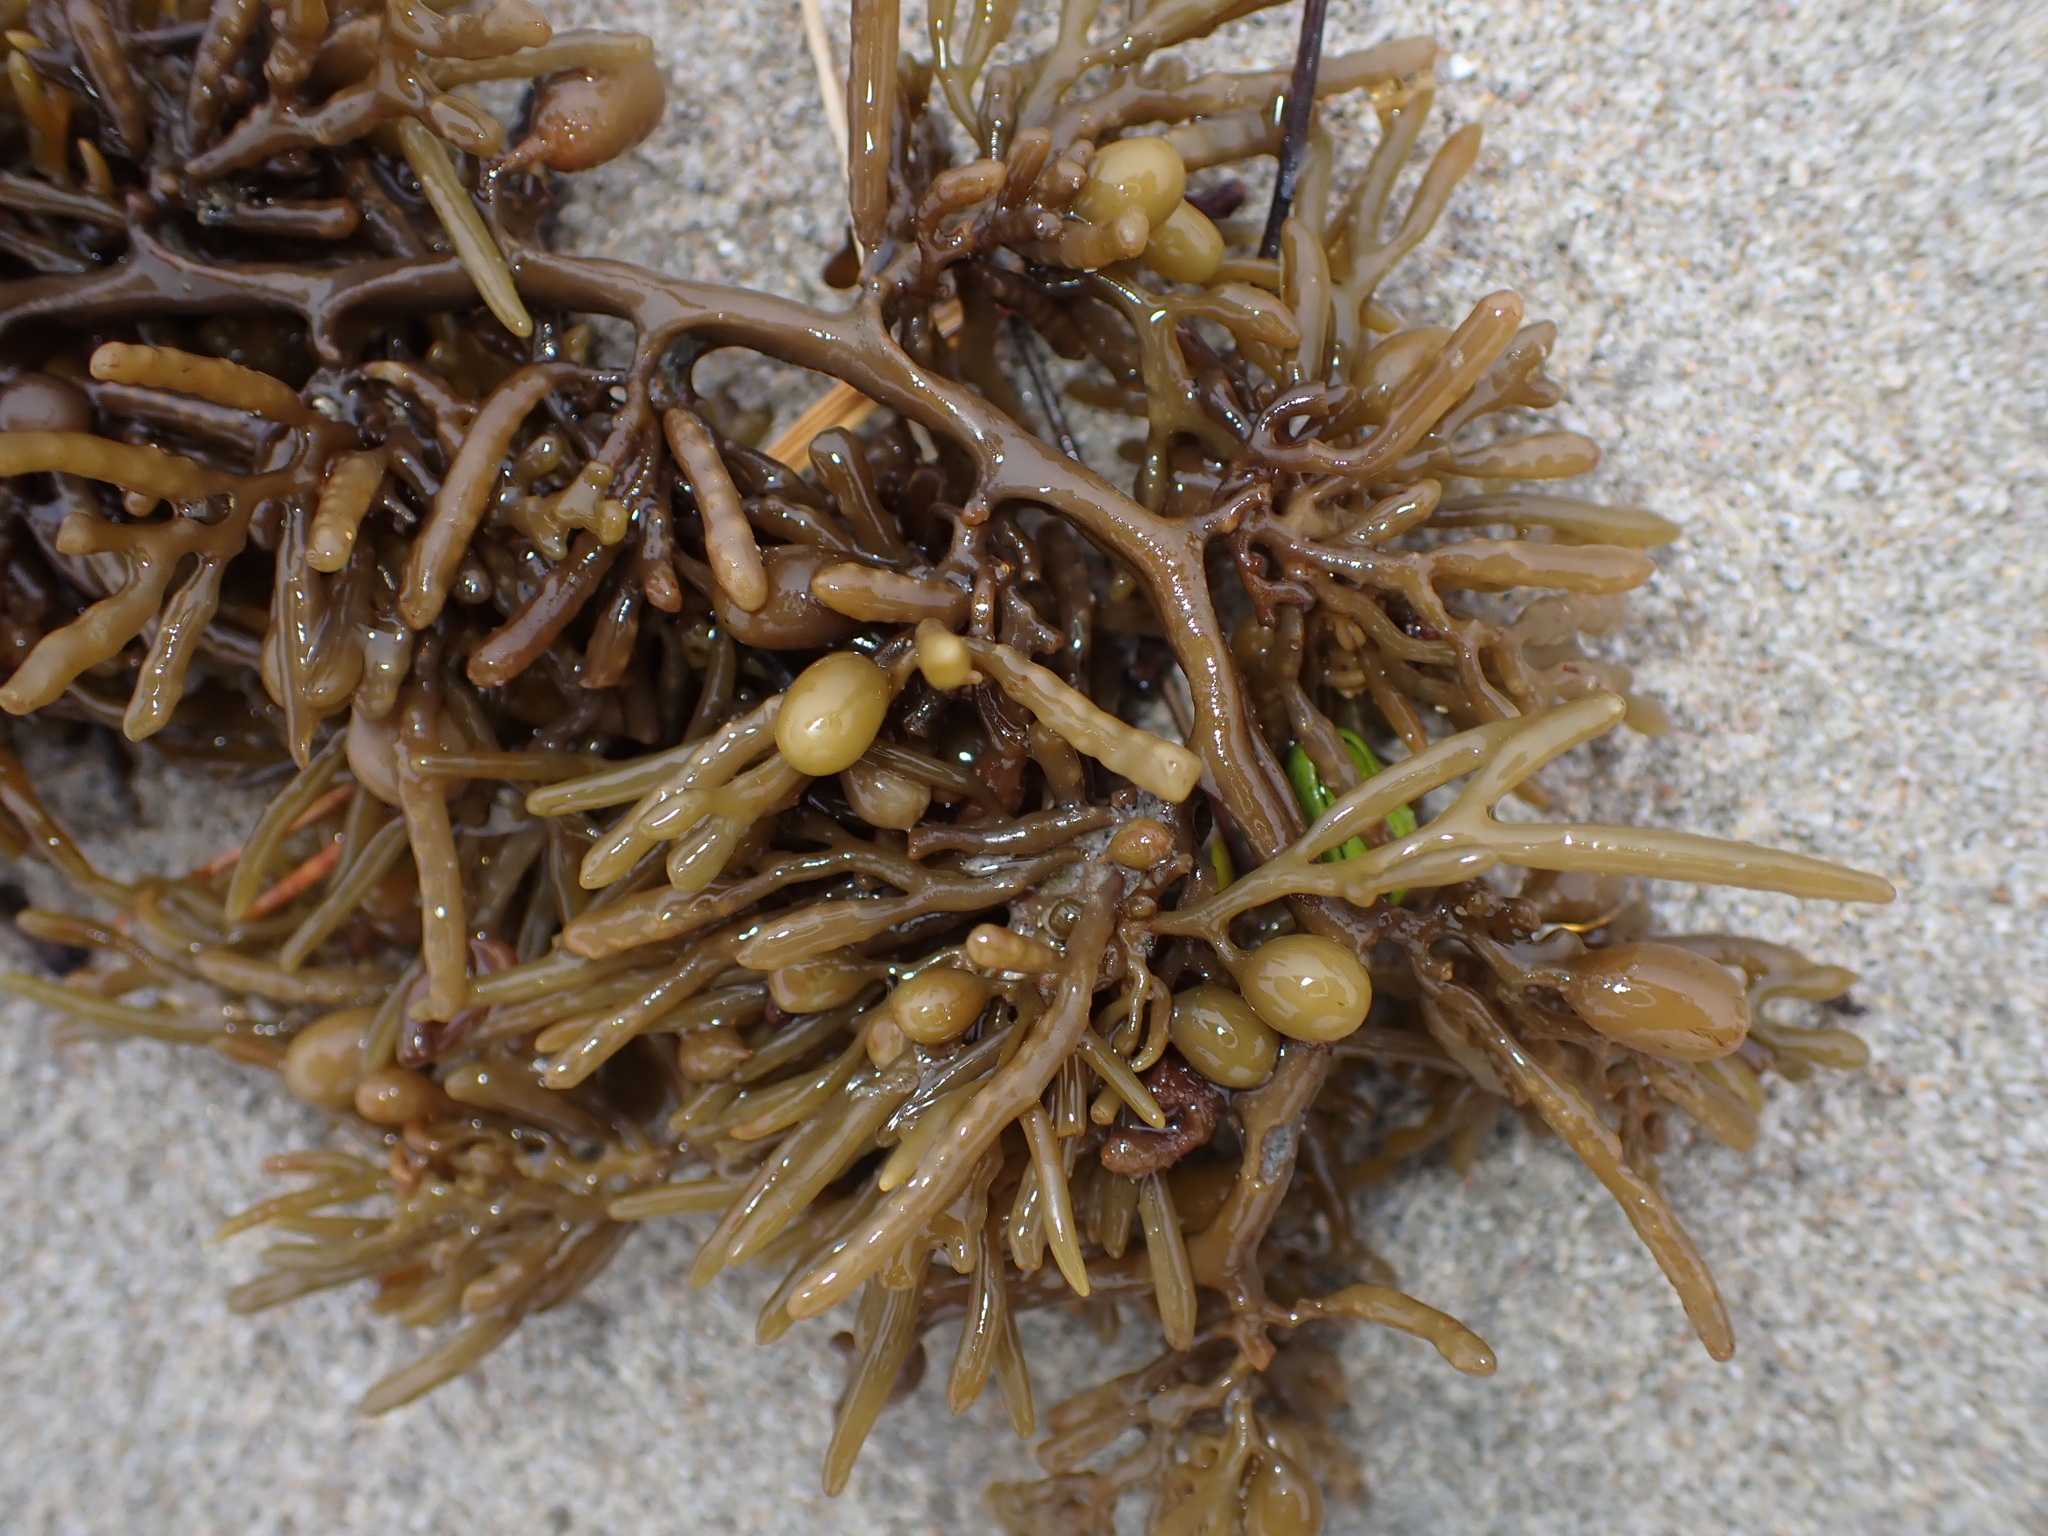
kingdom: Chromista
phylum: Ochrophyta
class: Phaeophyceae
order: Fucales
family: Sargassaceae
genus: Cystophora
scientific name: Cystophora torulosa
